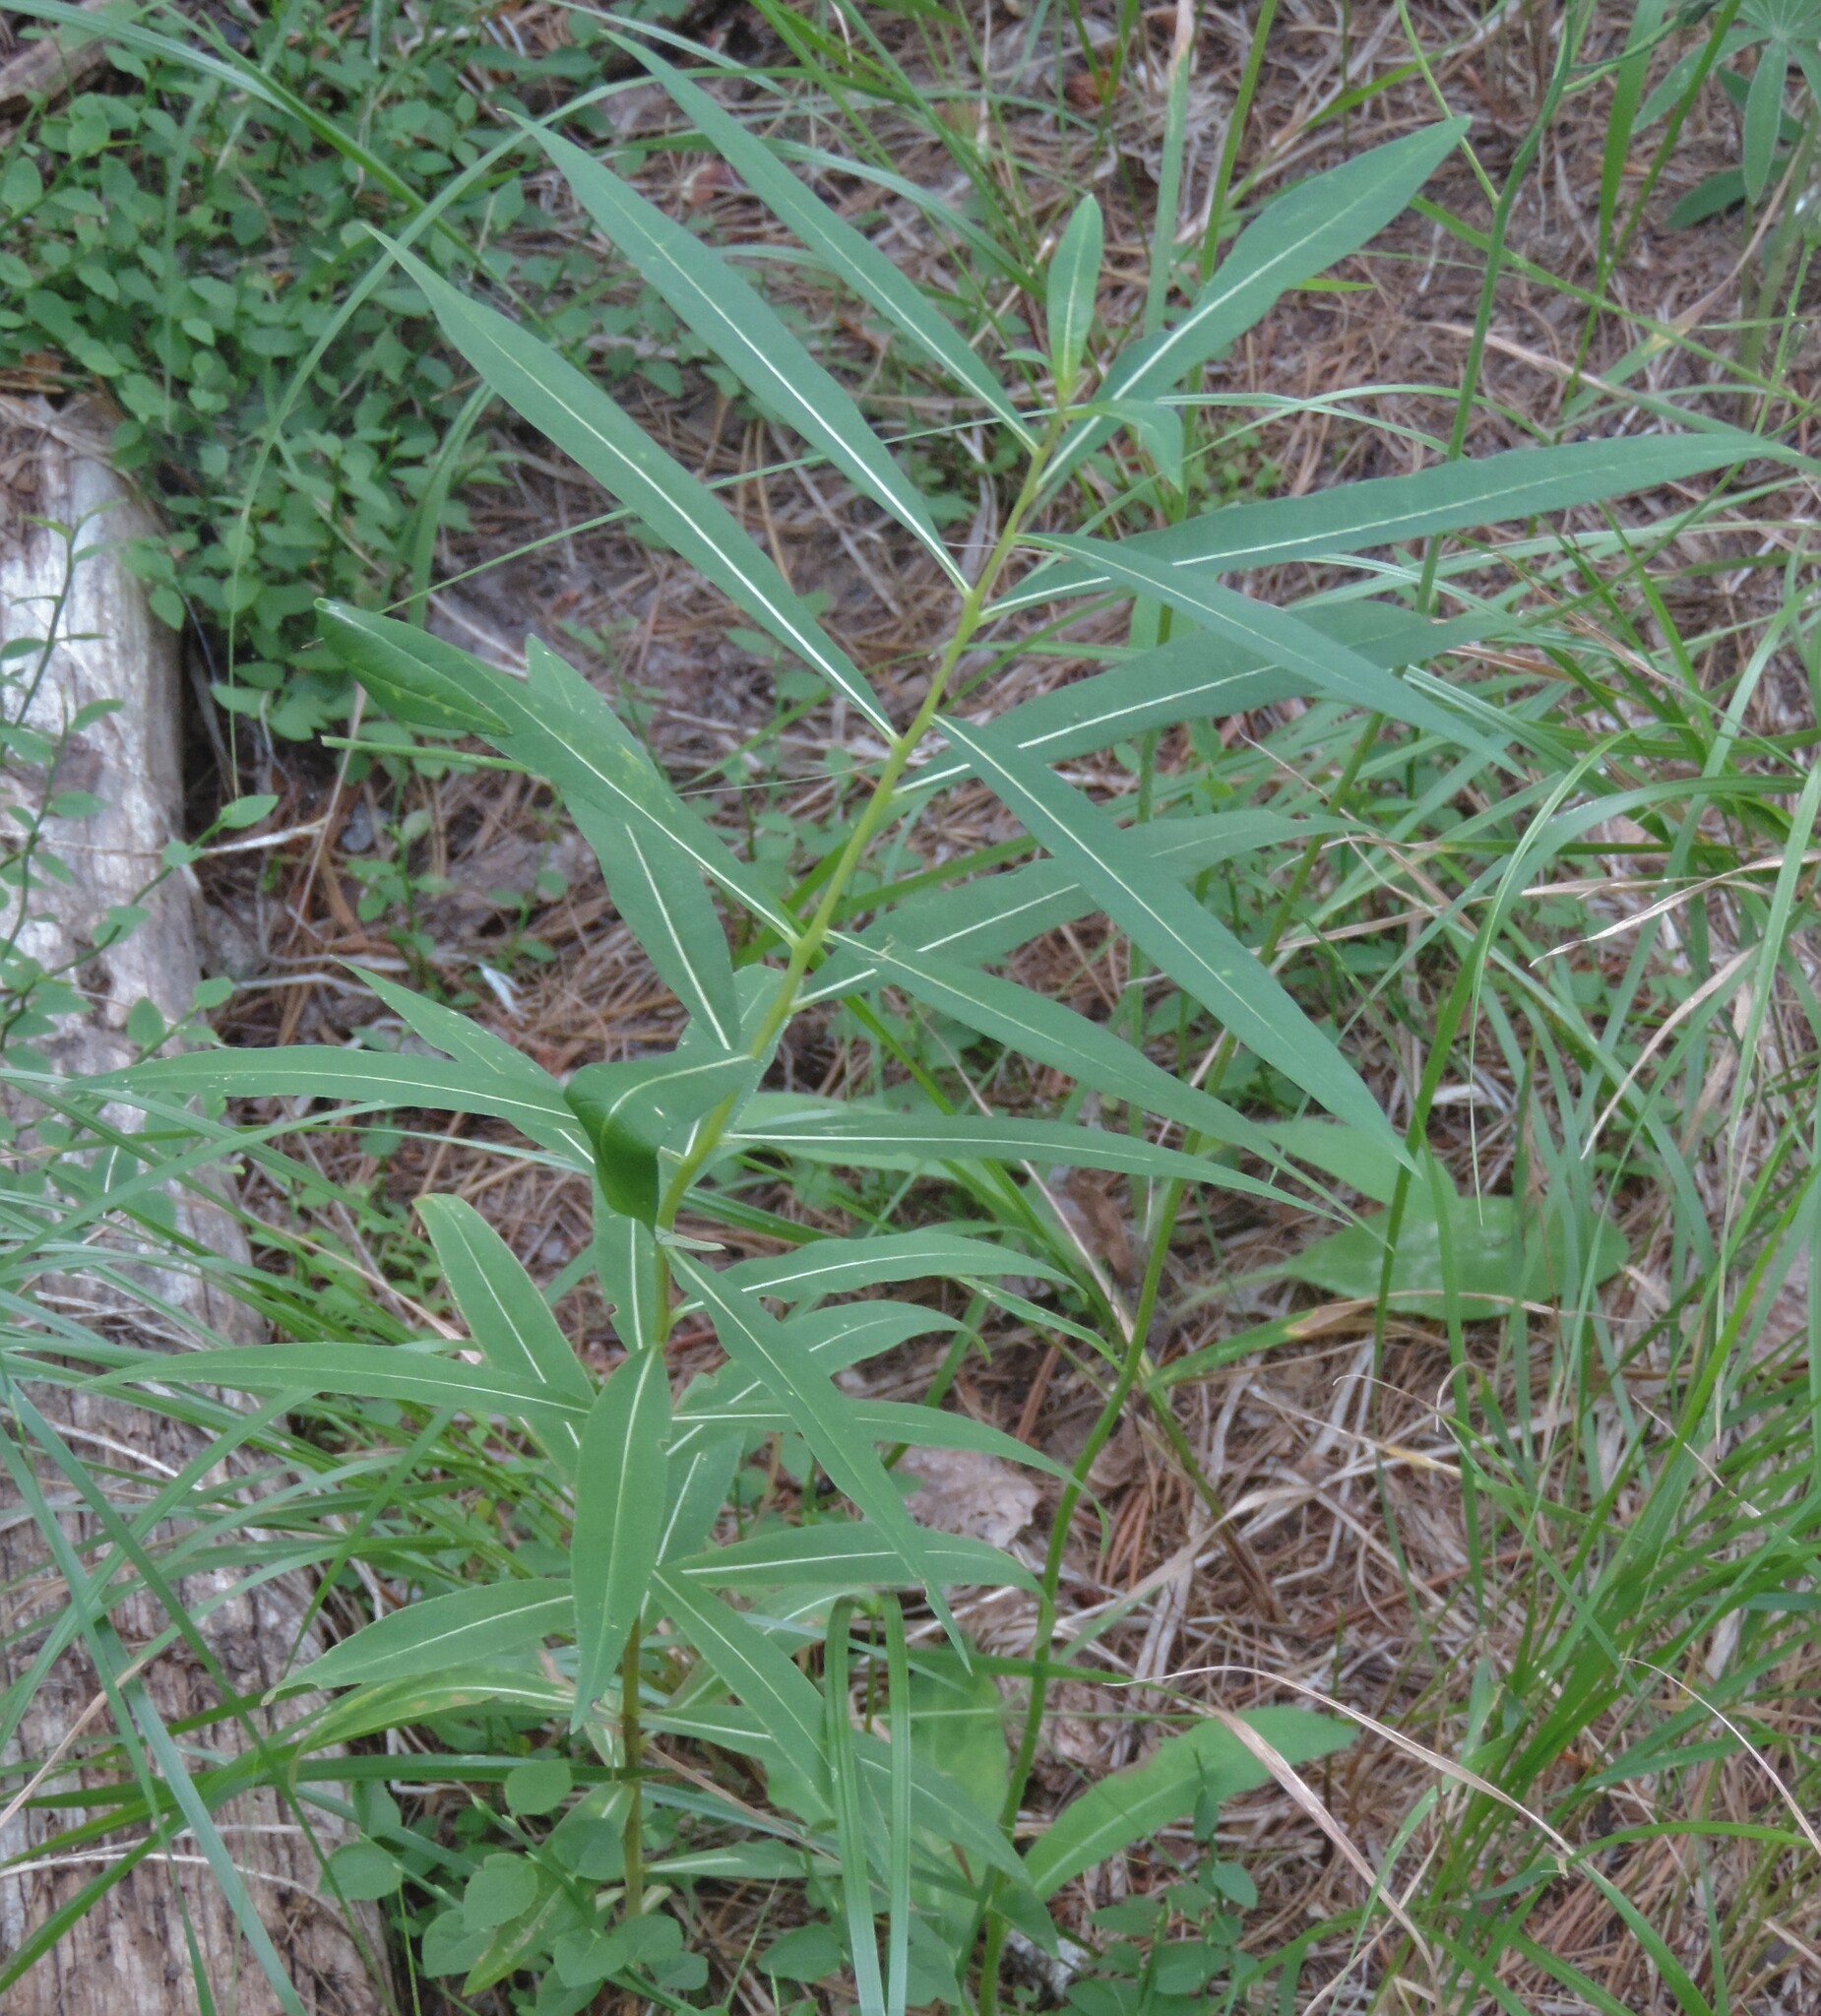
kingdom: Plantae
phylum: Tracheophyta
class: Magnoliopsida
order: Myrtales
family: Onagraceae
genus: Chamaenerion
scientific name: Chamaenerion angustifolium
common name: Fireweed
